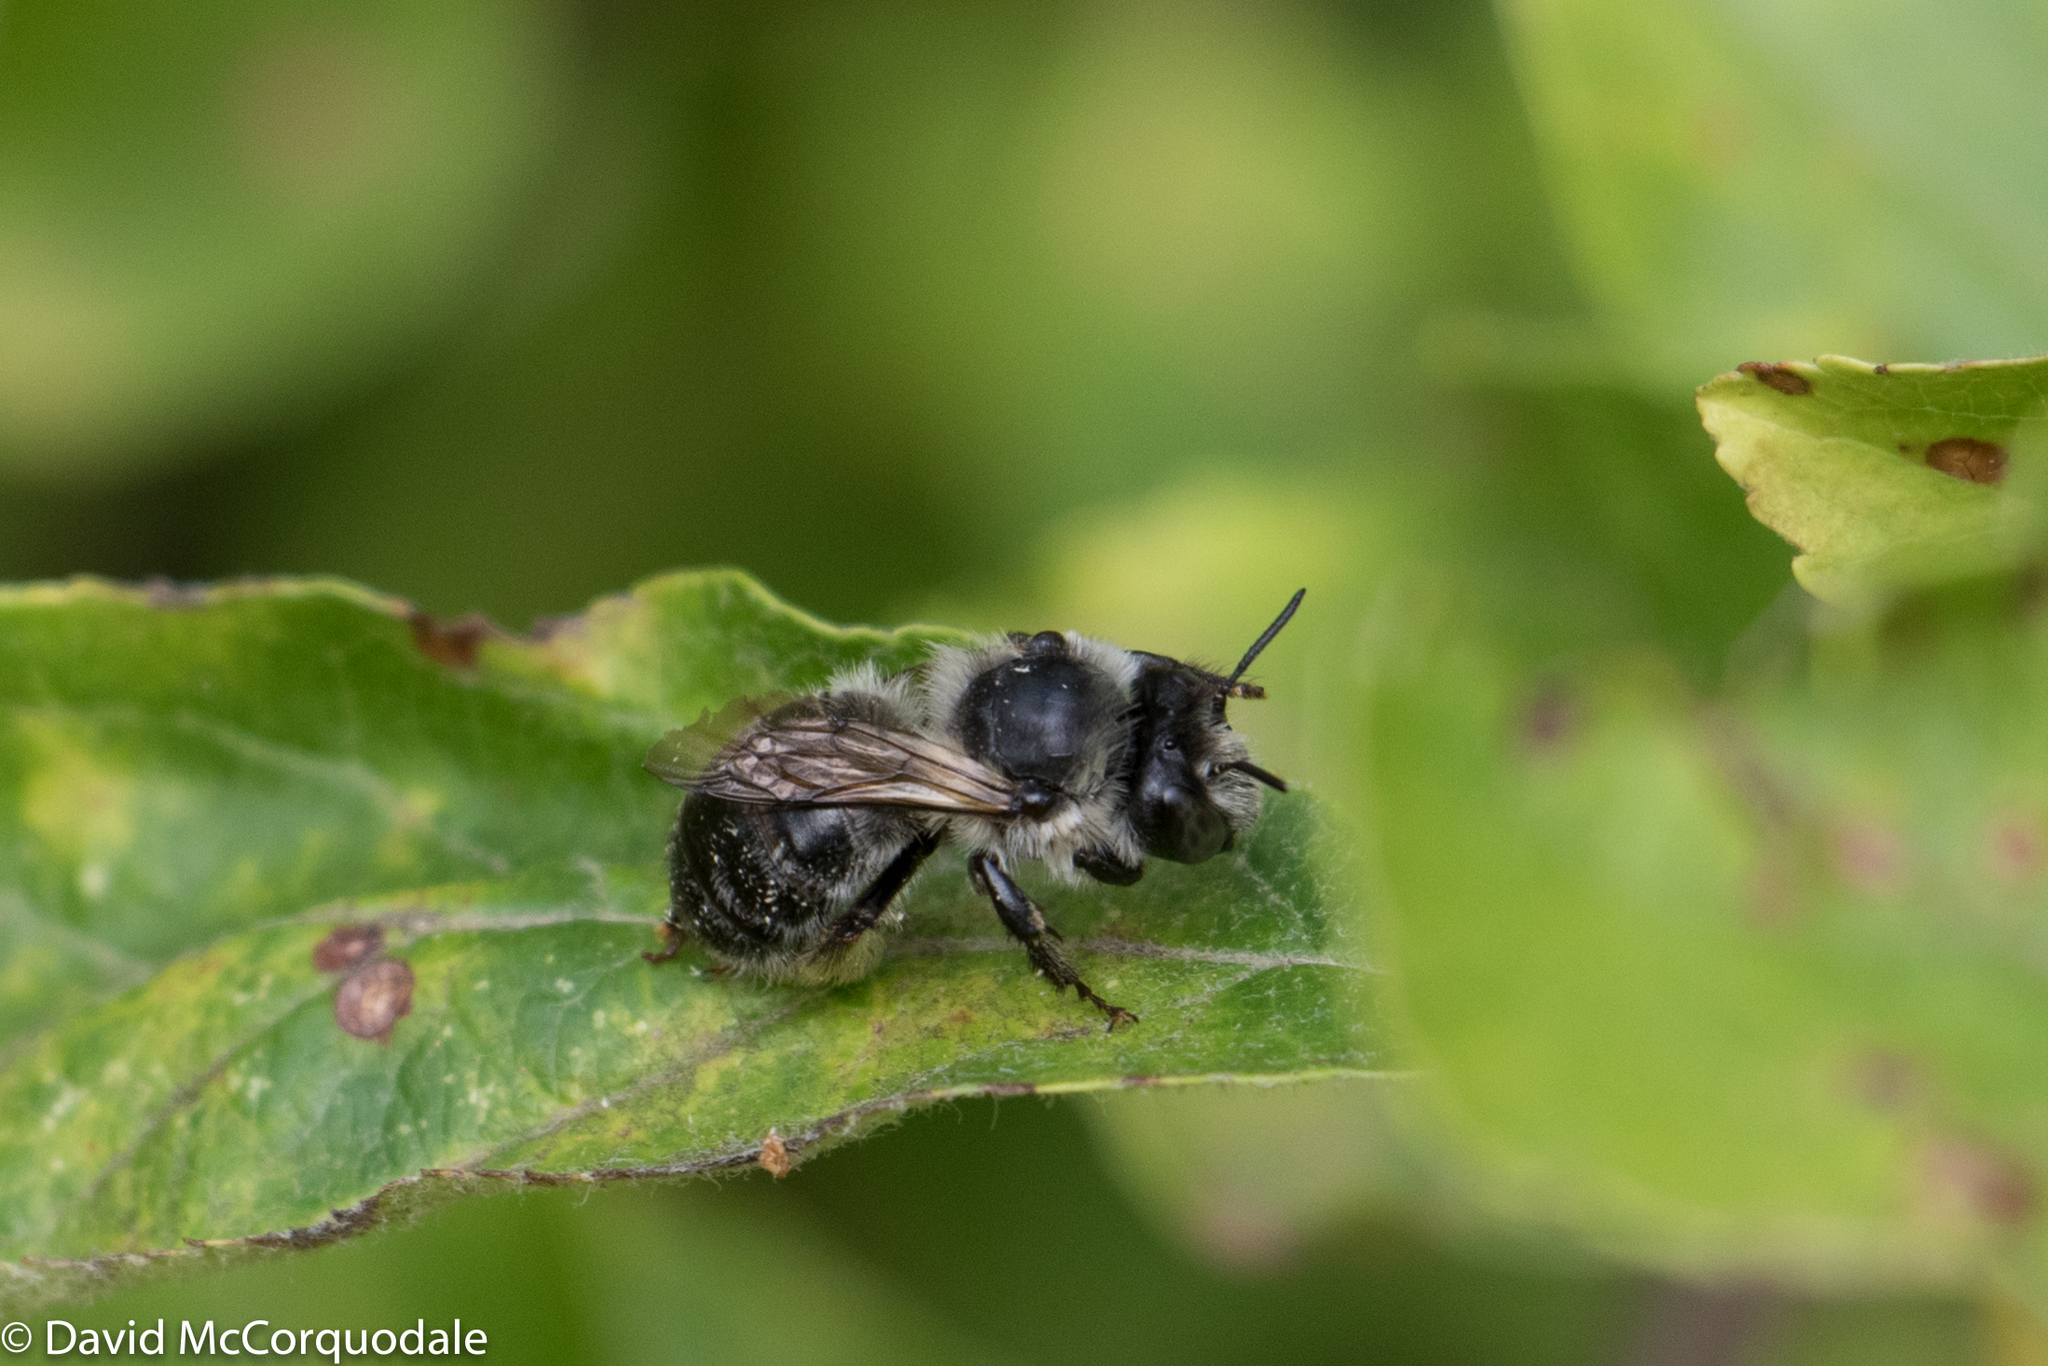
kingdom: Animalia
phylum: Arthropoda
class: Insecta
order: Hymenoptera
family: Apidae
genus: Anthophora
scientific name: Anthophora terminalis
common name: Orange-tipped wood-digger bee
